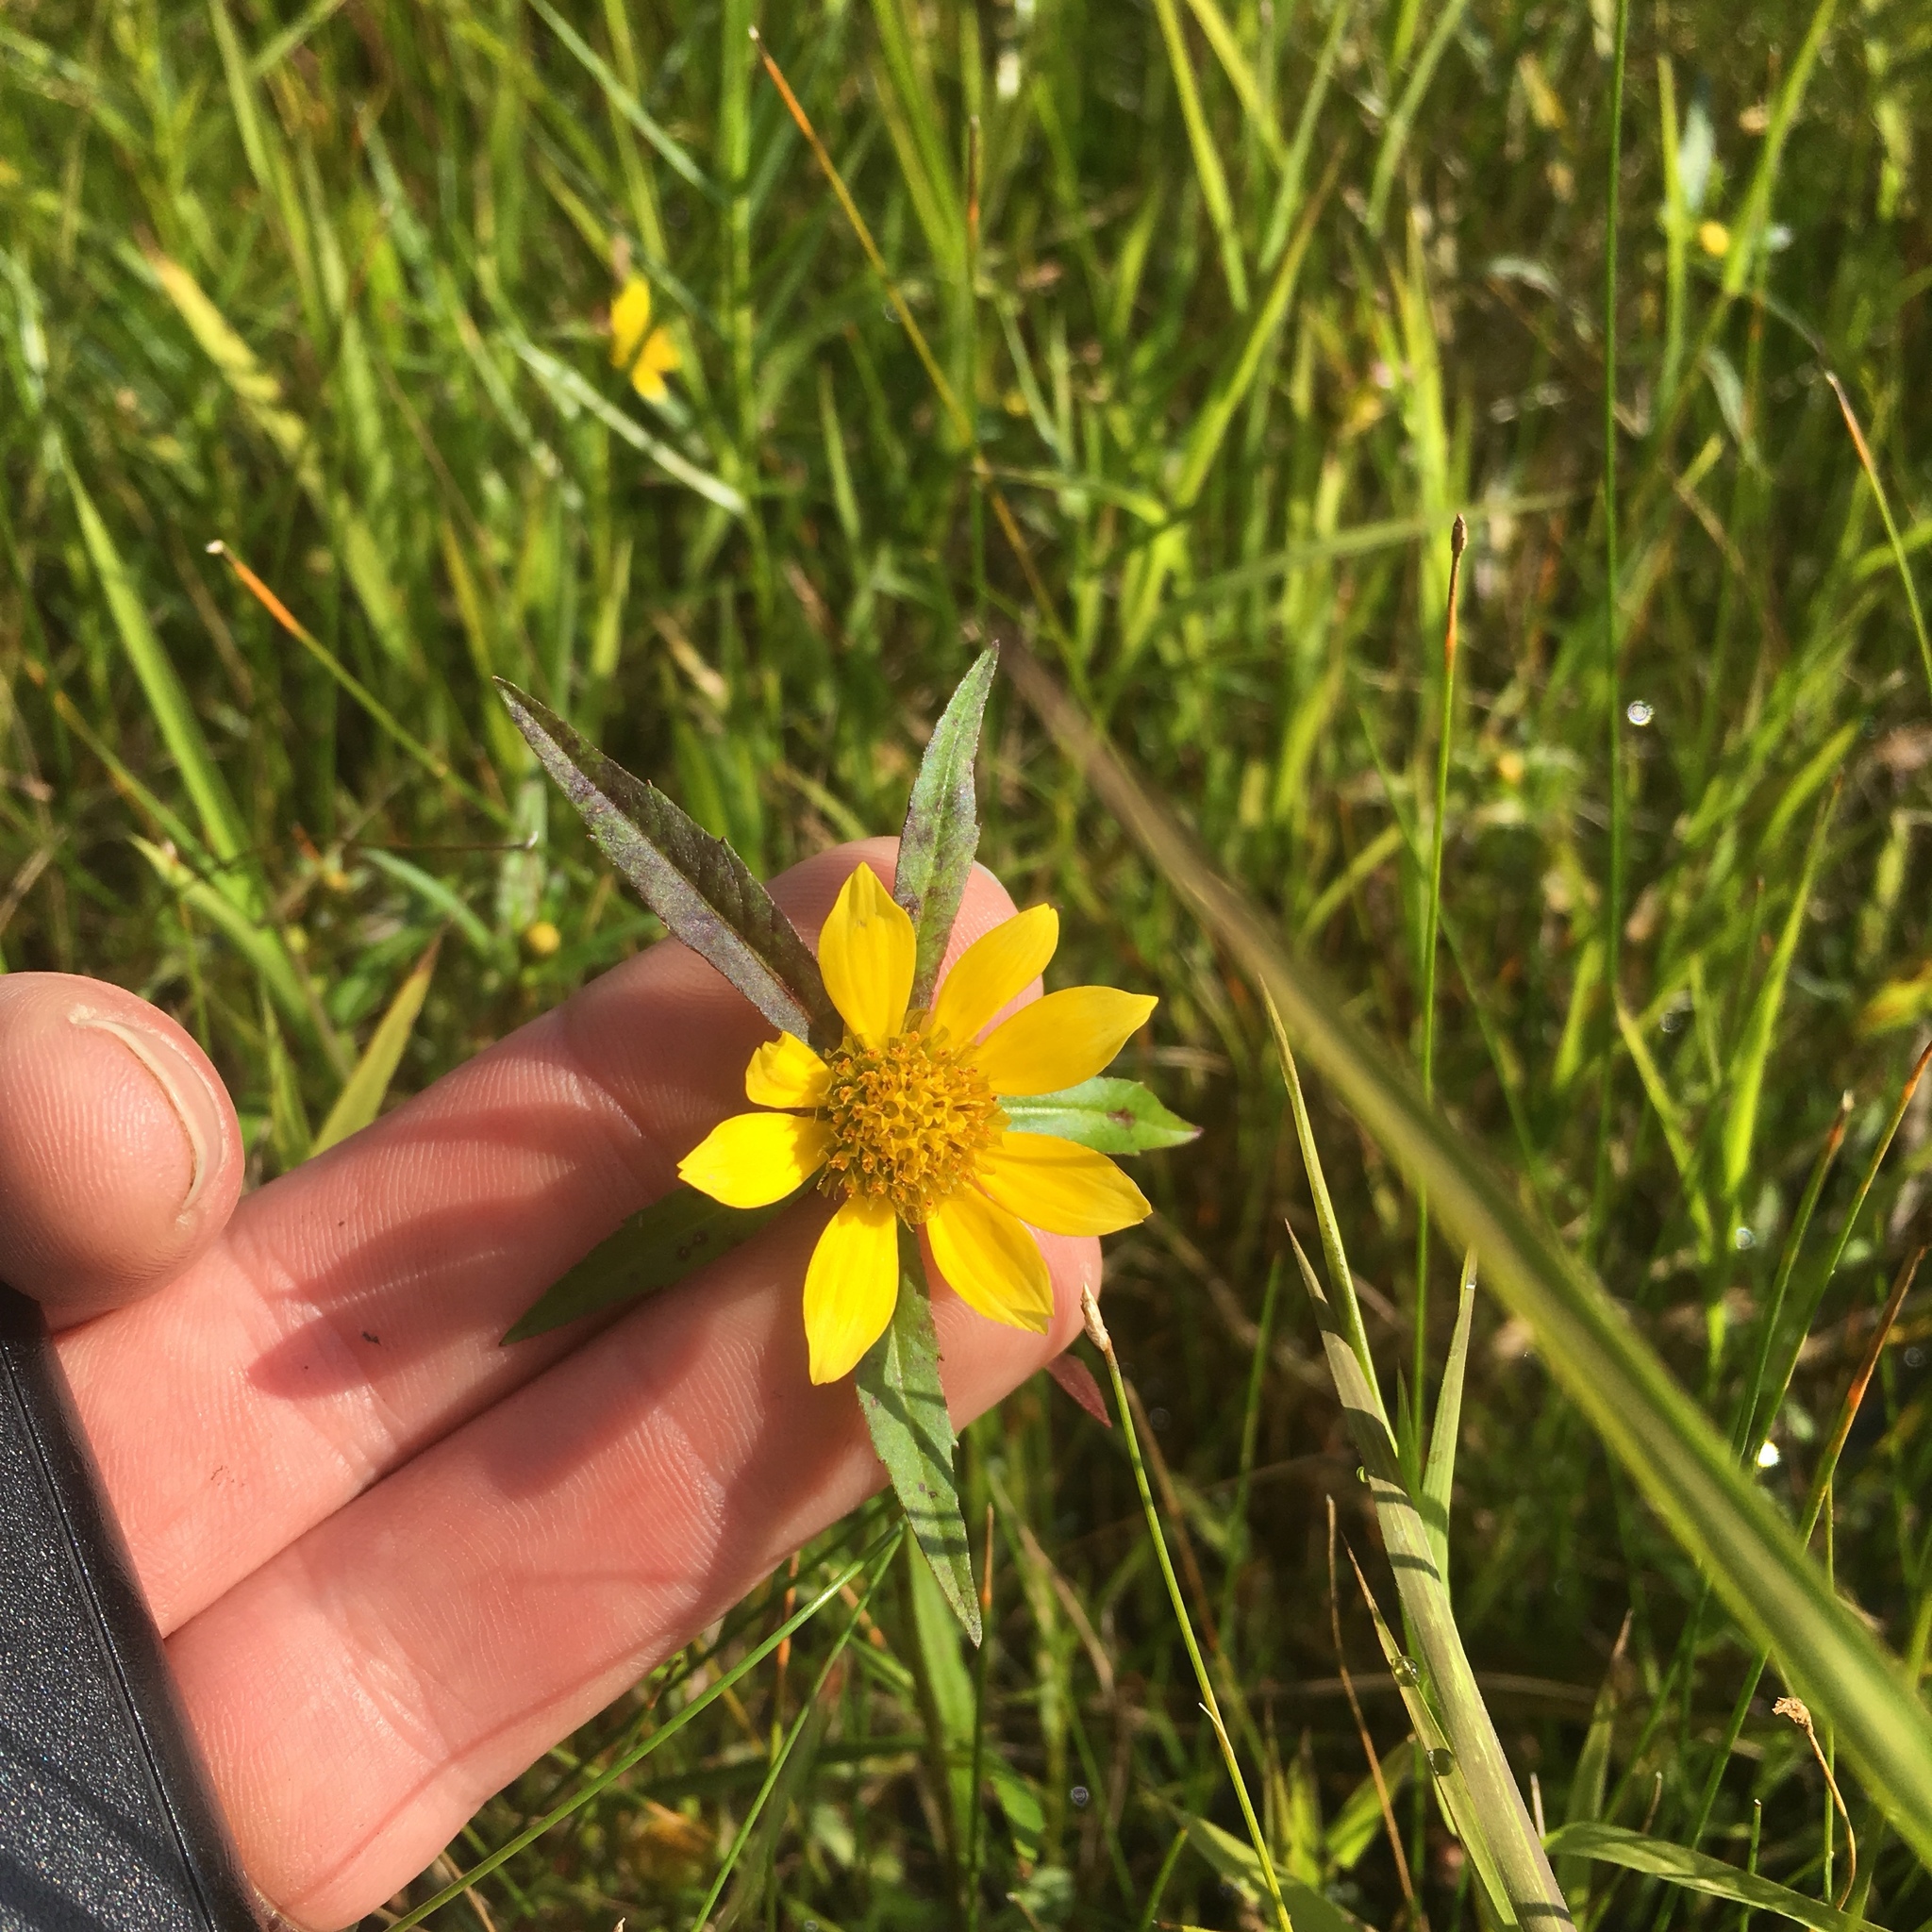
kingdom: Plantae
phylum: Tracheophyta
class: Magnoliopsida
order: Asterales
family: Asteraceae
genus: Bidens
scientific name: Bidens cernua
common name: Nodding bur-marigold
